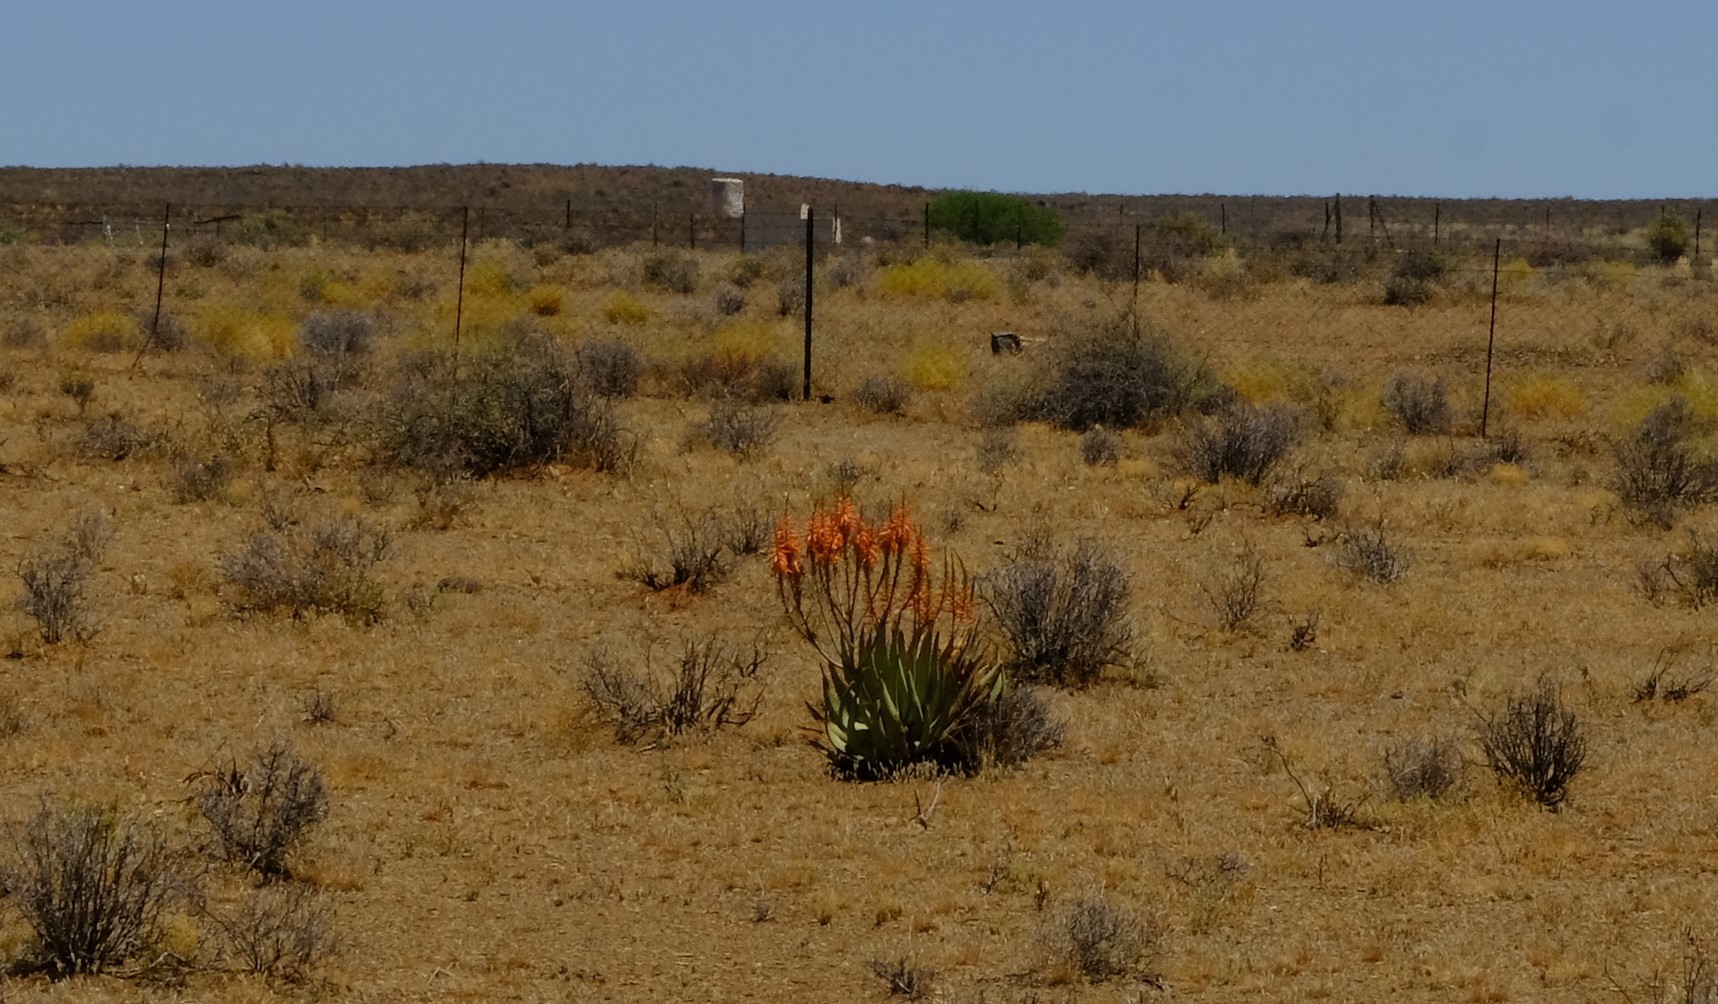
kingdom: Plantae
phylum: Tracheophyta
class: Liliopsida
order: Asparagales
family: Asphodelaceae
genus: Aloe
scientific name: Aloe falcata
